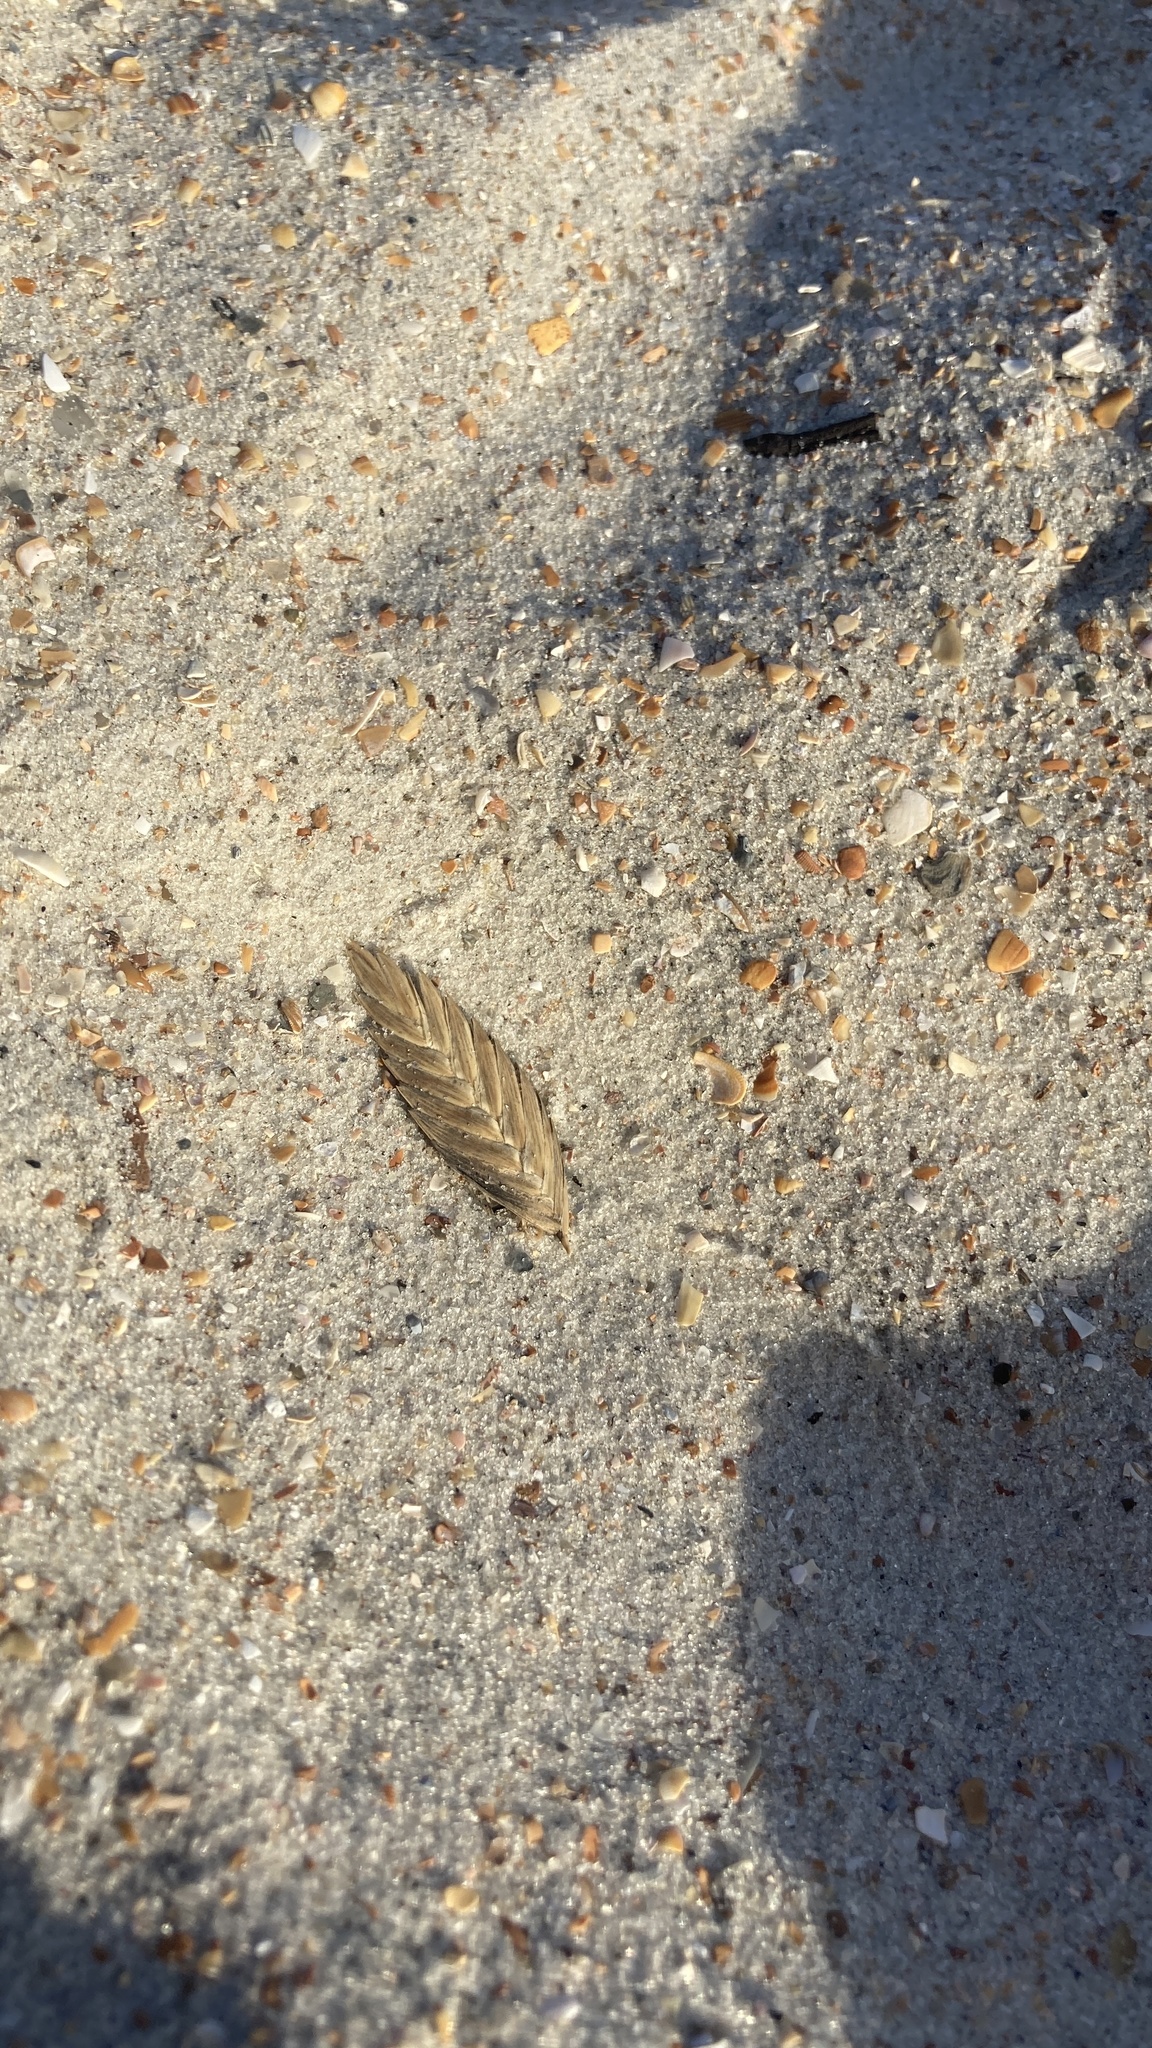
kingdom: Plantae
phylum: Tracheophyta
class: Liliopsida
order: Poales
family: Poaceae
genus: Uniola
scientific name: Uniola paniculata
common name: Seaside-oats
